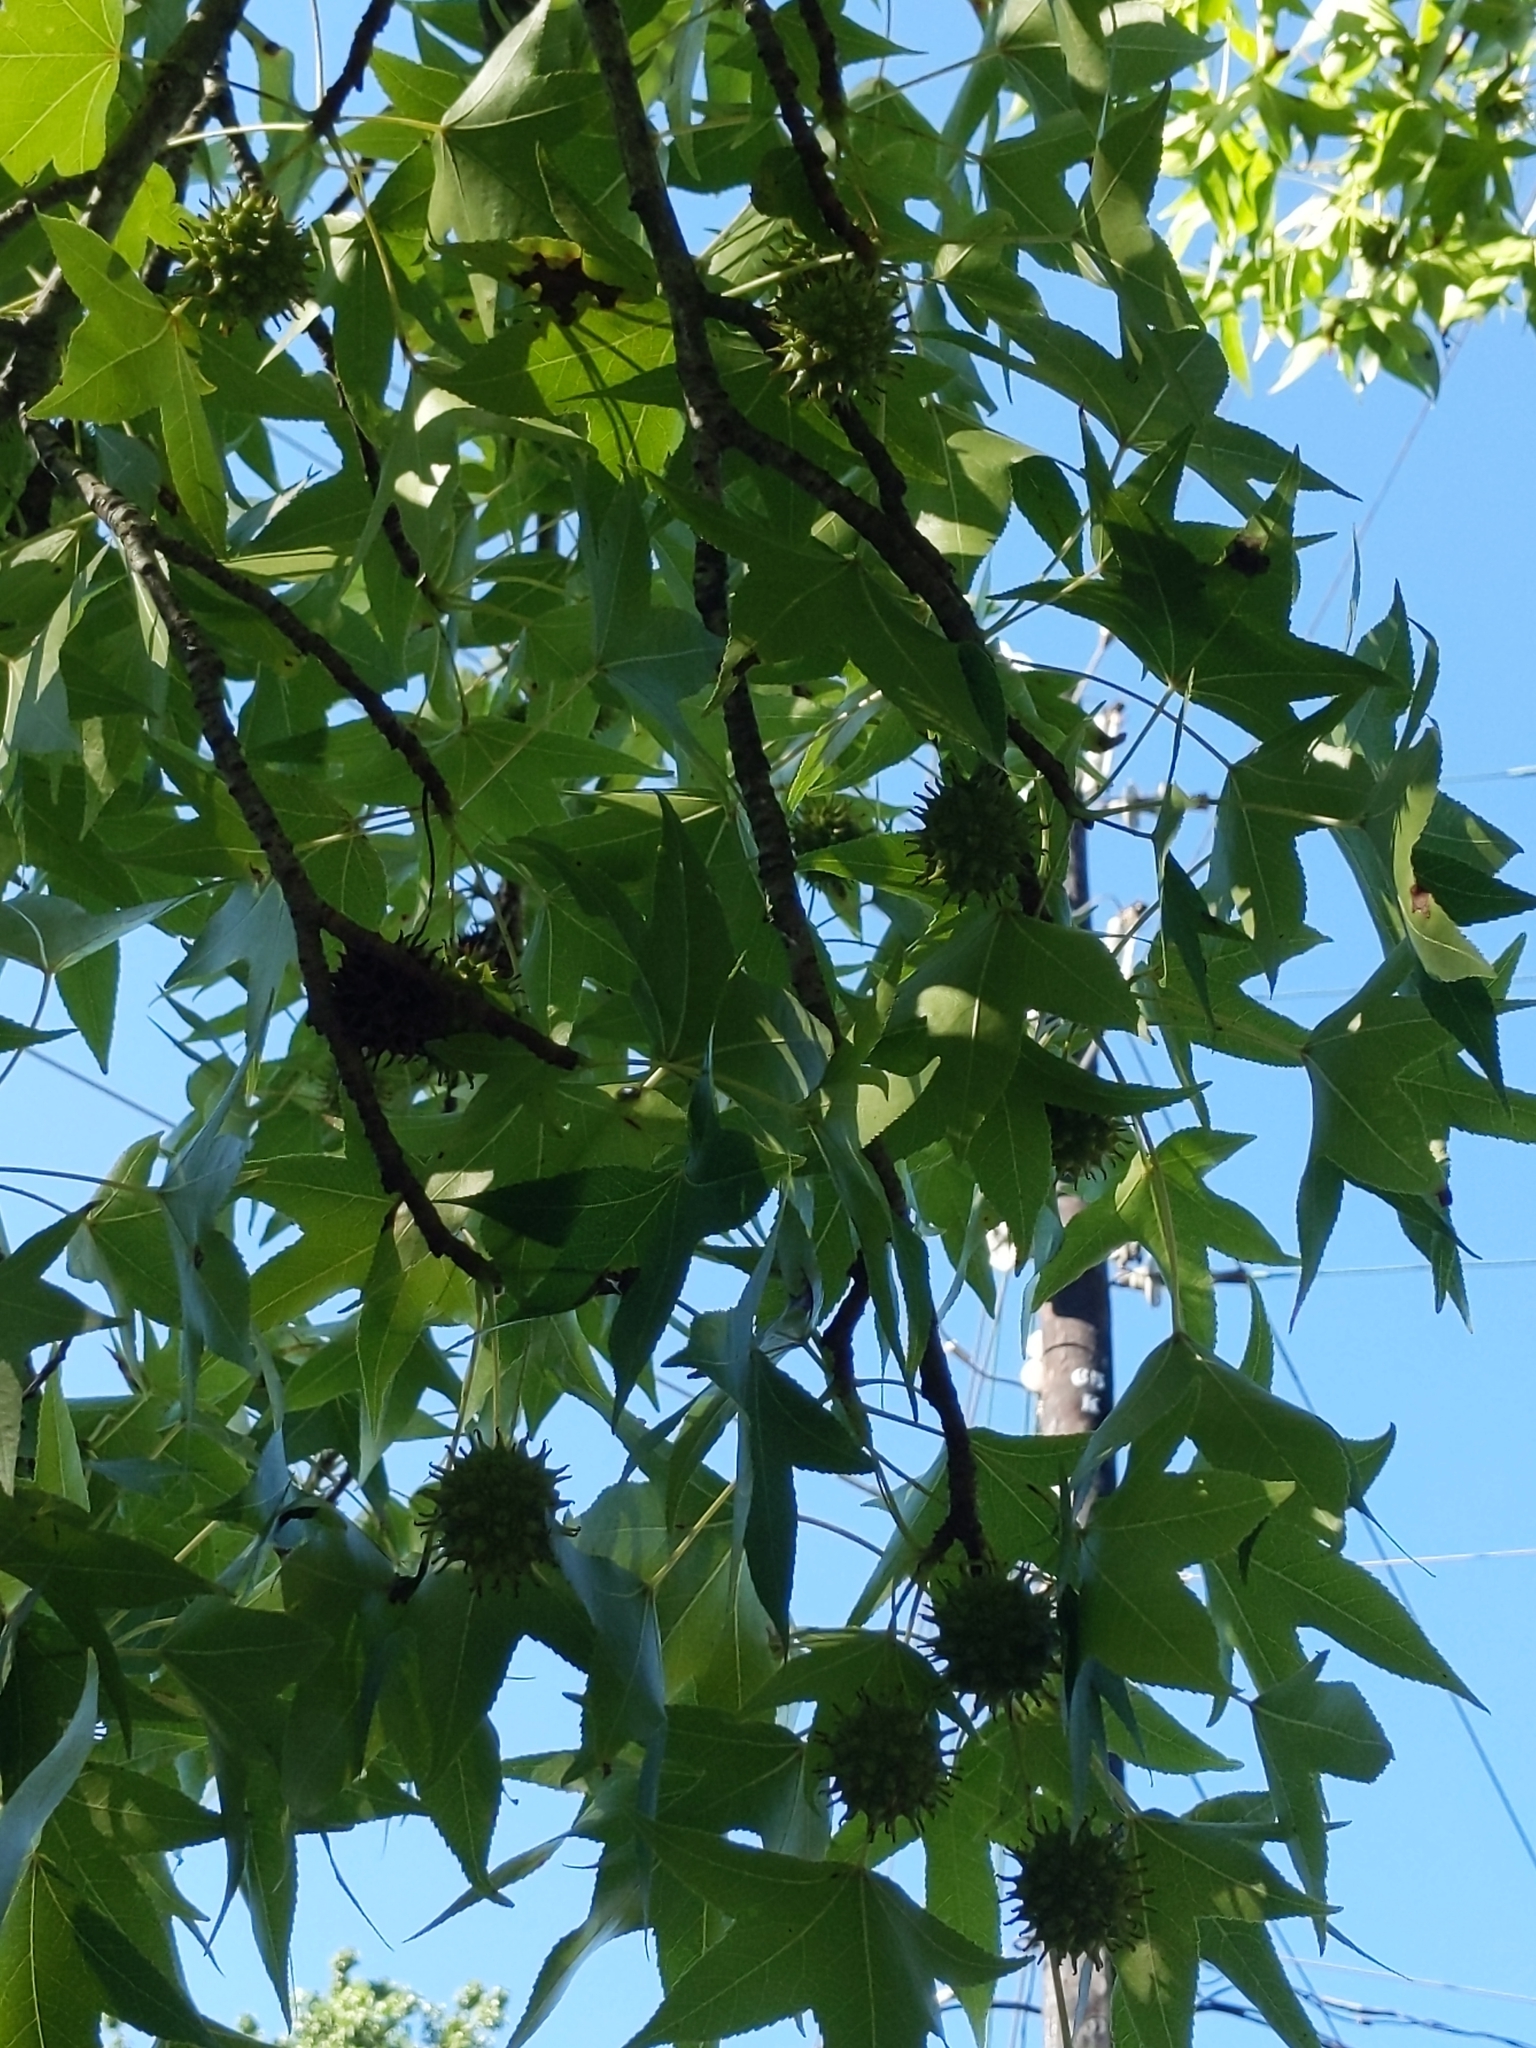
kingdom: Plantae
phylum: Tracheophyta
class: Magnoliopsida
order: Saxifragales
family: Altingiaceae
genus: Liquidambar
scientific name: Liquidambar styraciflua
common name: Sweet gum
